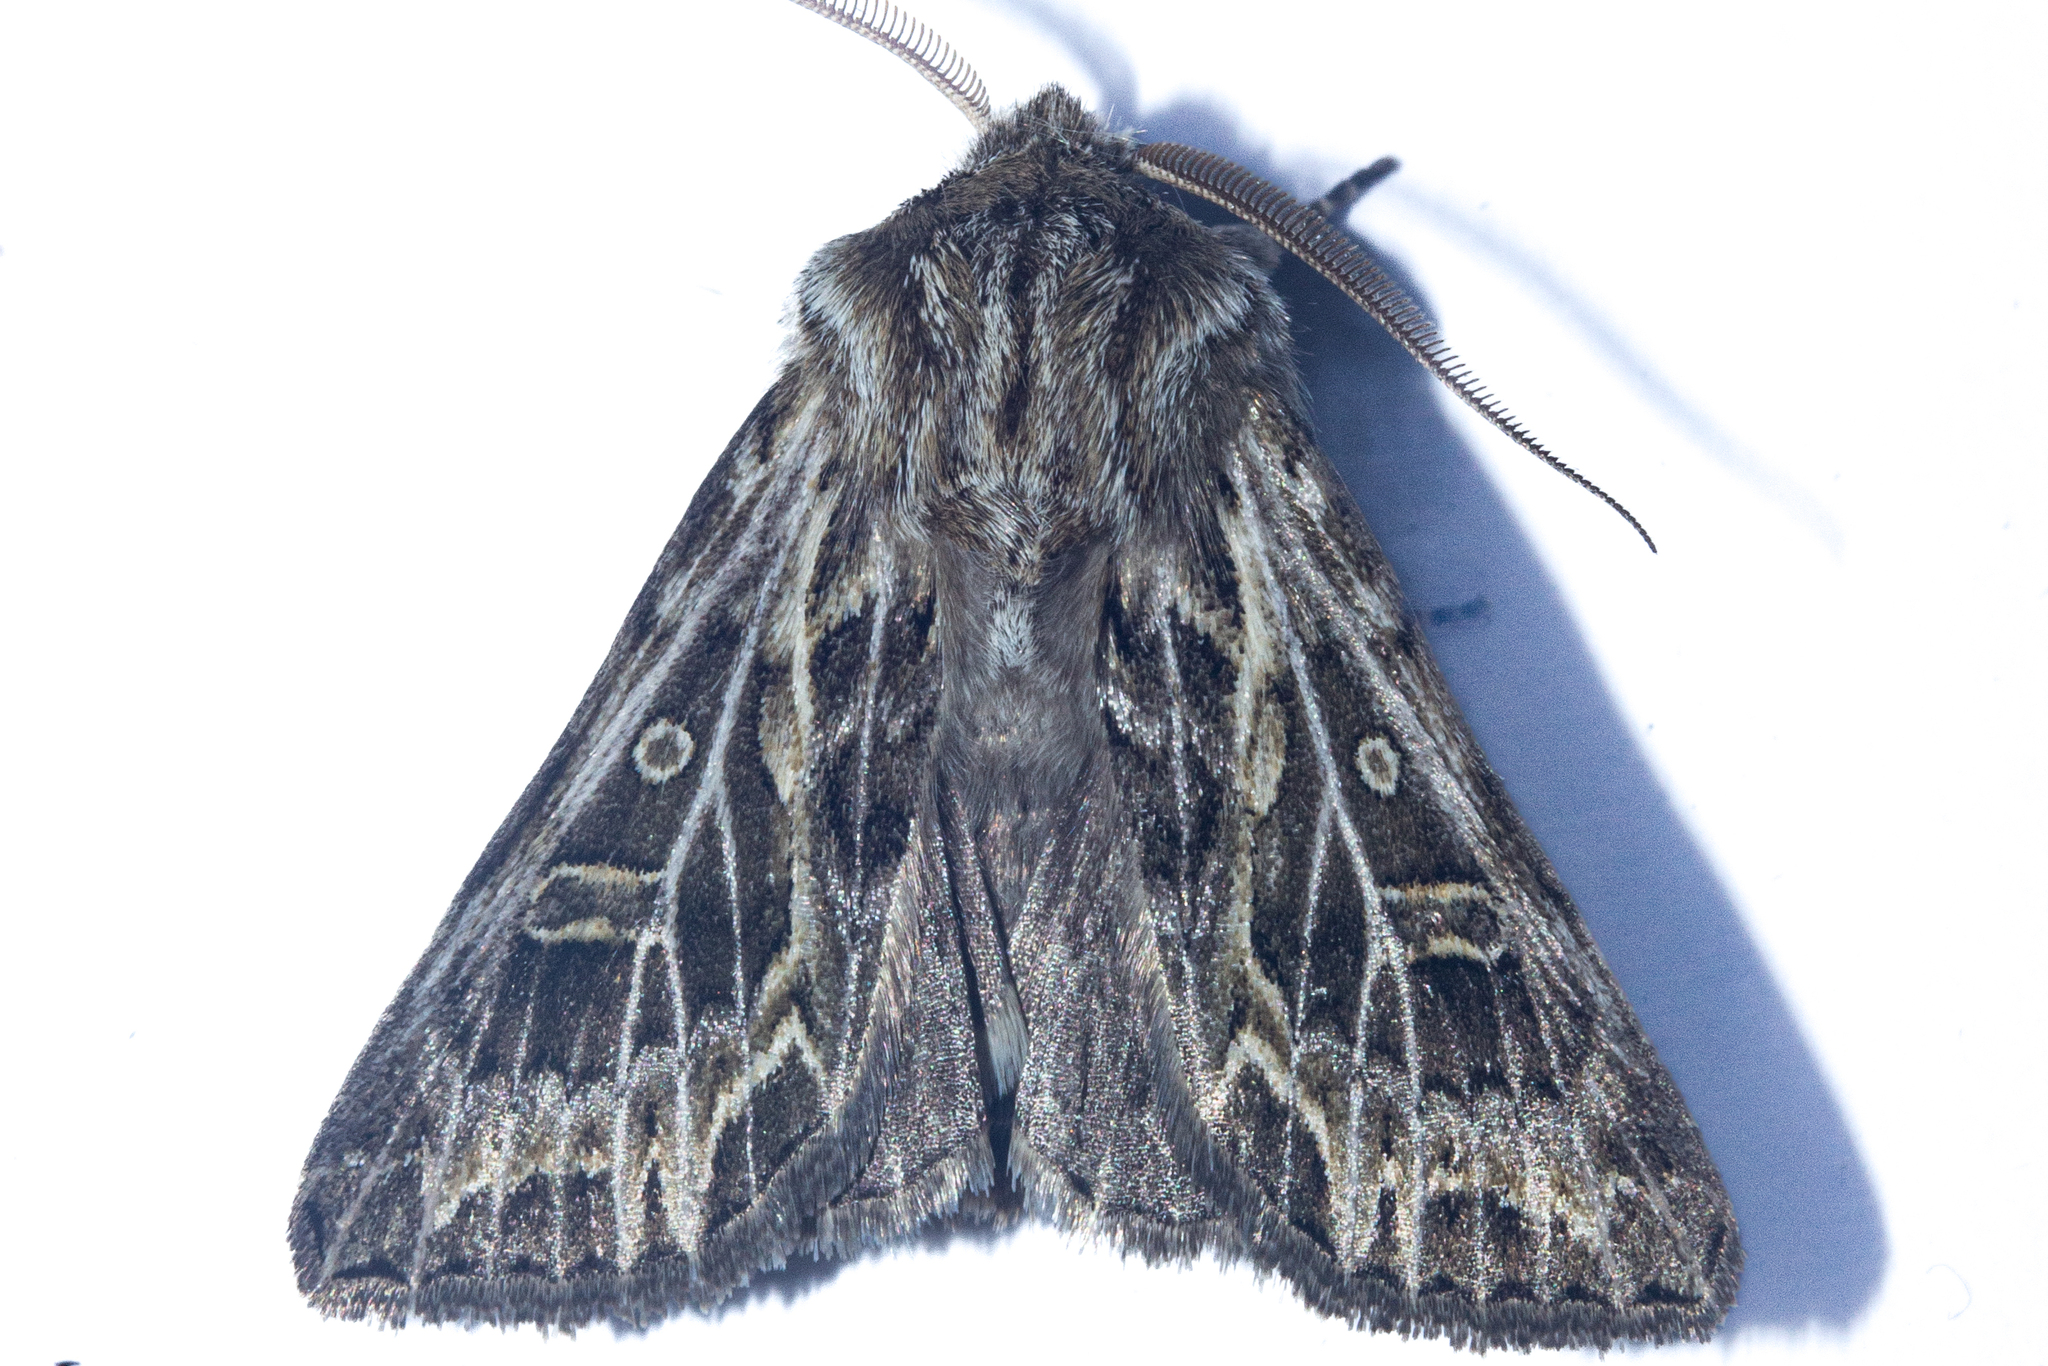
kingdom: Animalia
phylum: Arthropoda
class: Insecta
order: Lepidoptera
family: Noctuidae
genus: Ichneutica
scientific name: Ichneutica
